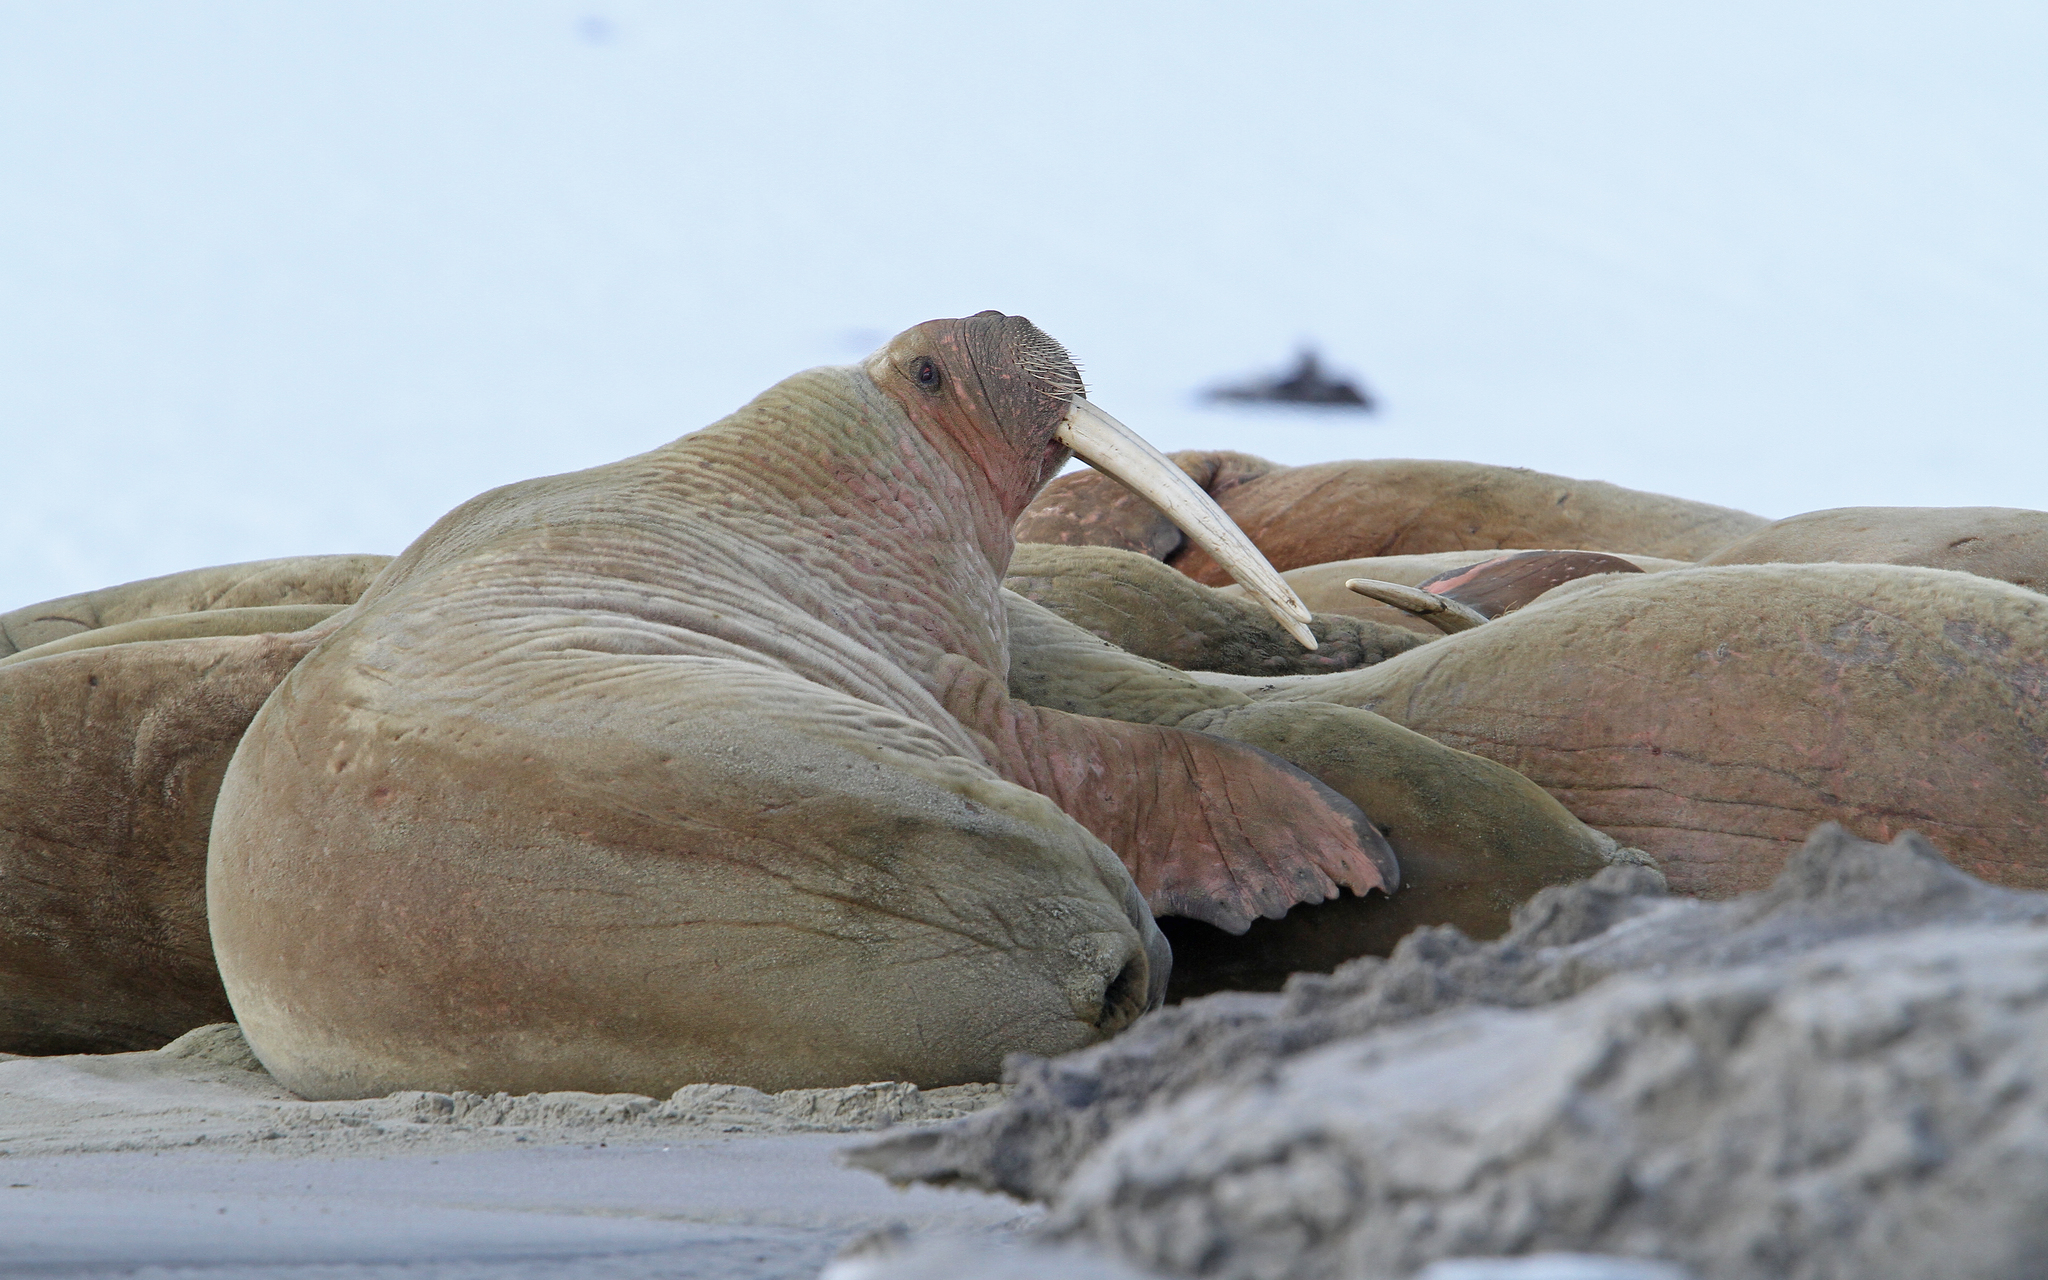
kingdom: Animalia
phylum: Chordata
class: Mammalia
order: Carnivora
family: Odobenidae
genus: Odobenus
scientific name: Odobenus rosmarus
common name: Walrus
